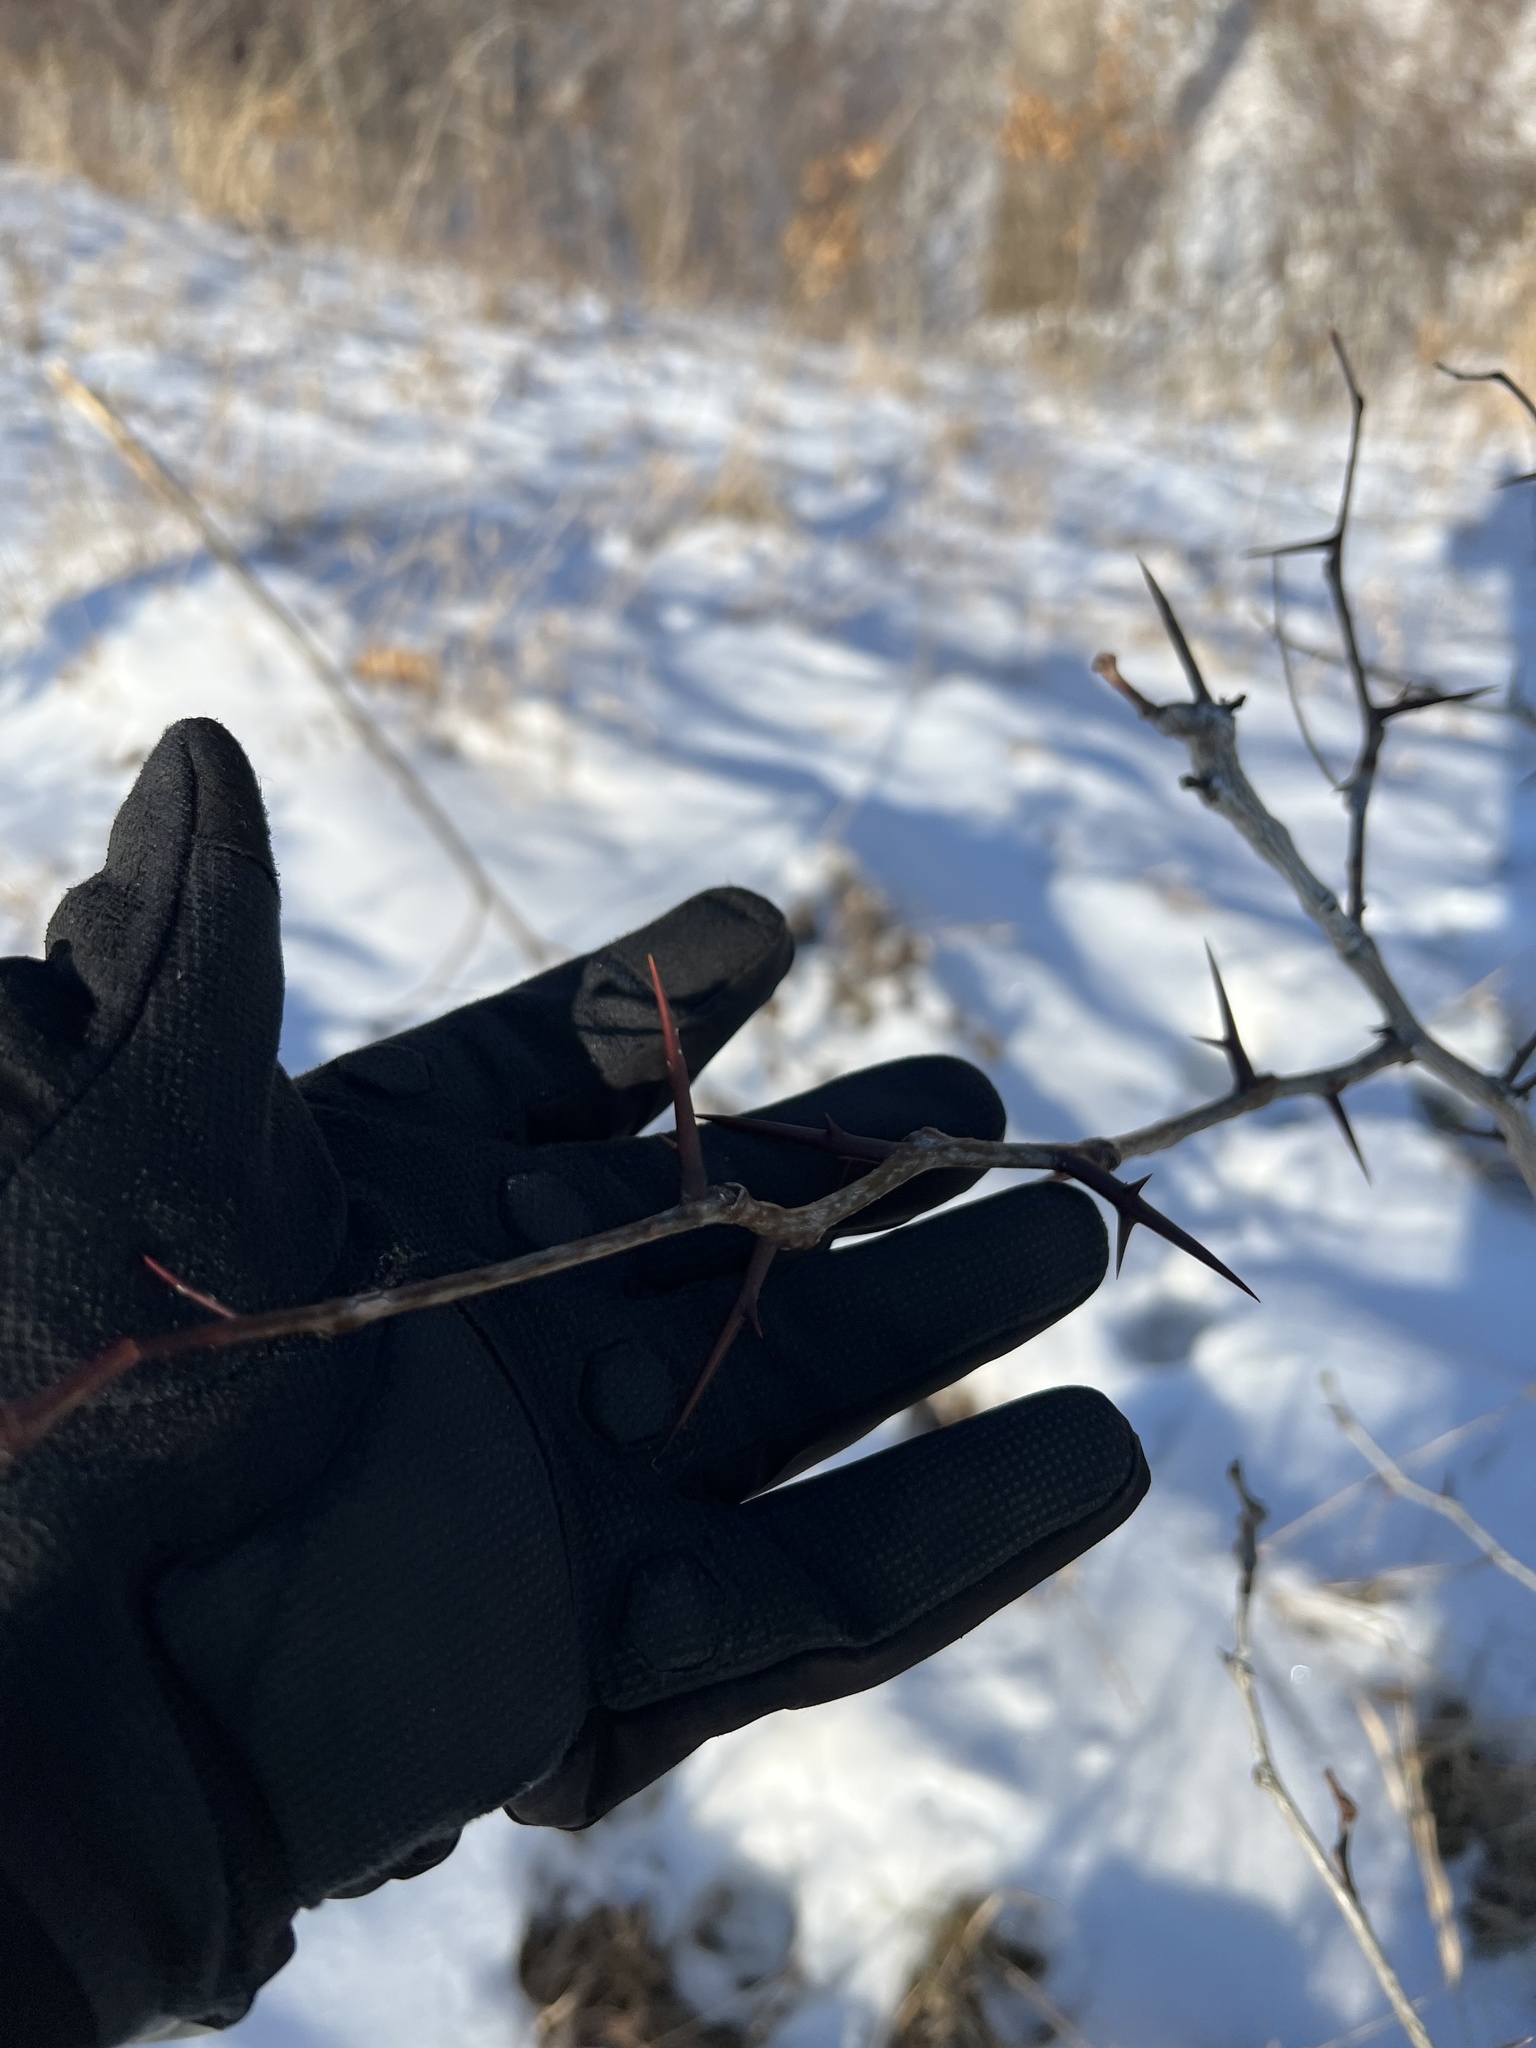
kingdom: Plantae
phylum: Tracheophyta
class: Magnoliopsida
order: Fabales
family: Fabaceae
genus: Gleditsia
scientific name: Gleditsia triacanthos
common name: Common honeylocust
